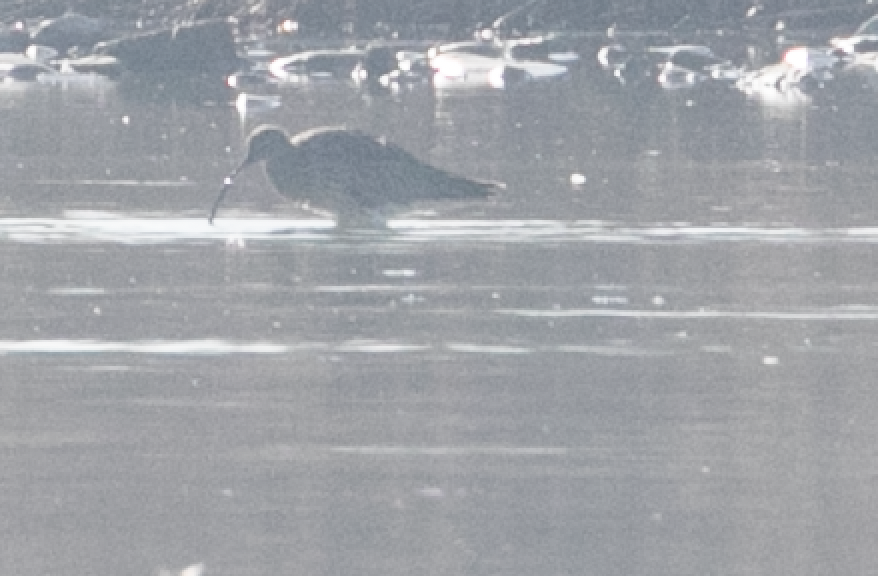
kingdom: Animalia
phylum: Chordata
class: Aves
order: Charadriiformes
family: Scolopacidae
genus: Numenius
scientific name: Numenius arquata
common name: Eurasian curlew
